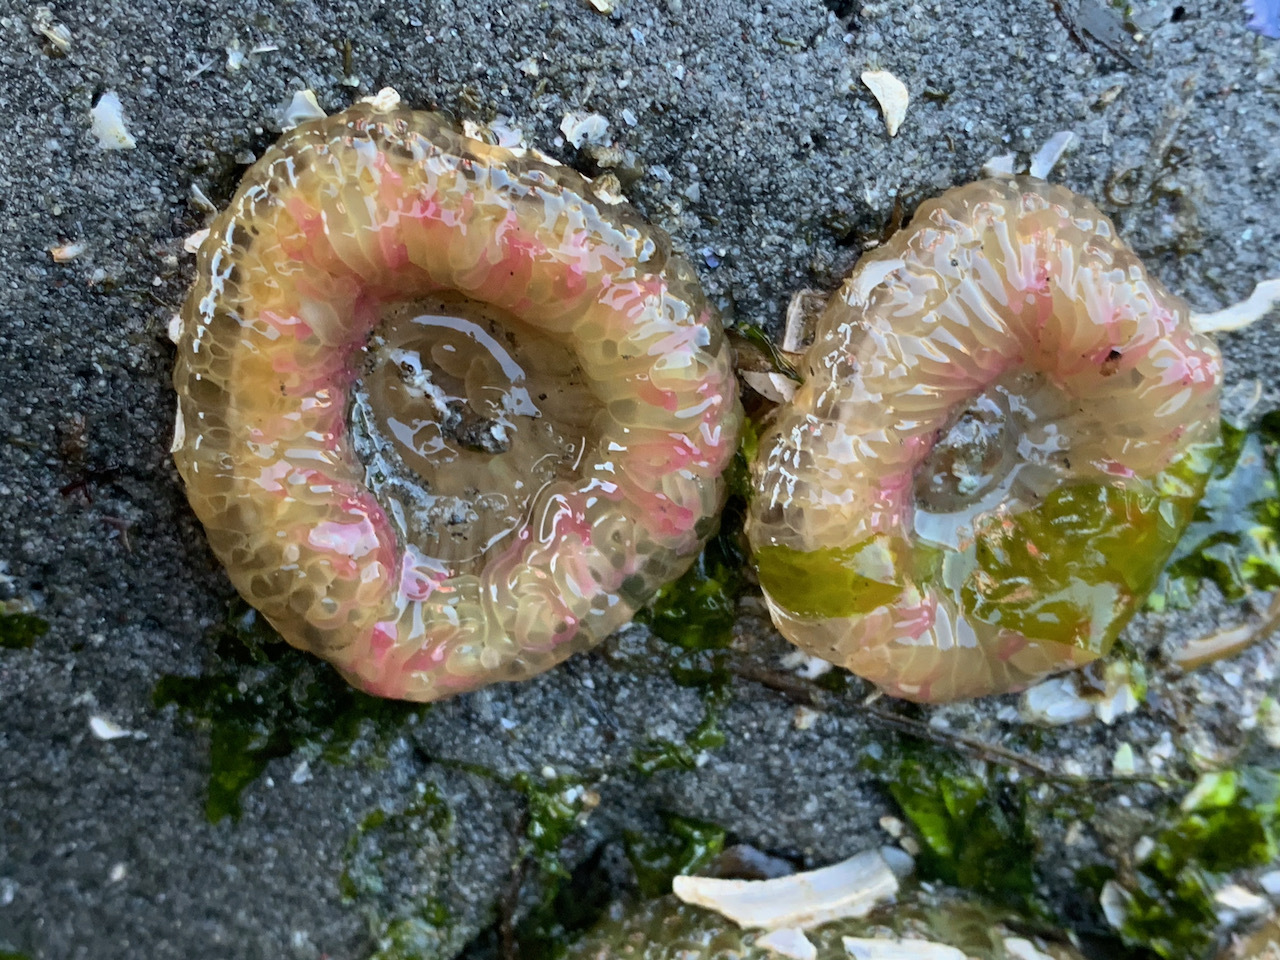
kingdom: Animalia
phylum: Cnidaria
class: Anthozoa
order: Actiniaria
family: Actiniidae
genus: Anthopleura
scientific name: Anthopleura elegantissima
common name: Clonal anemone
